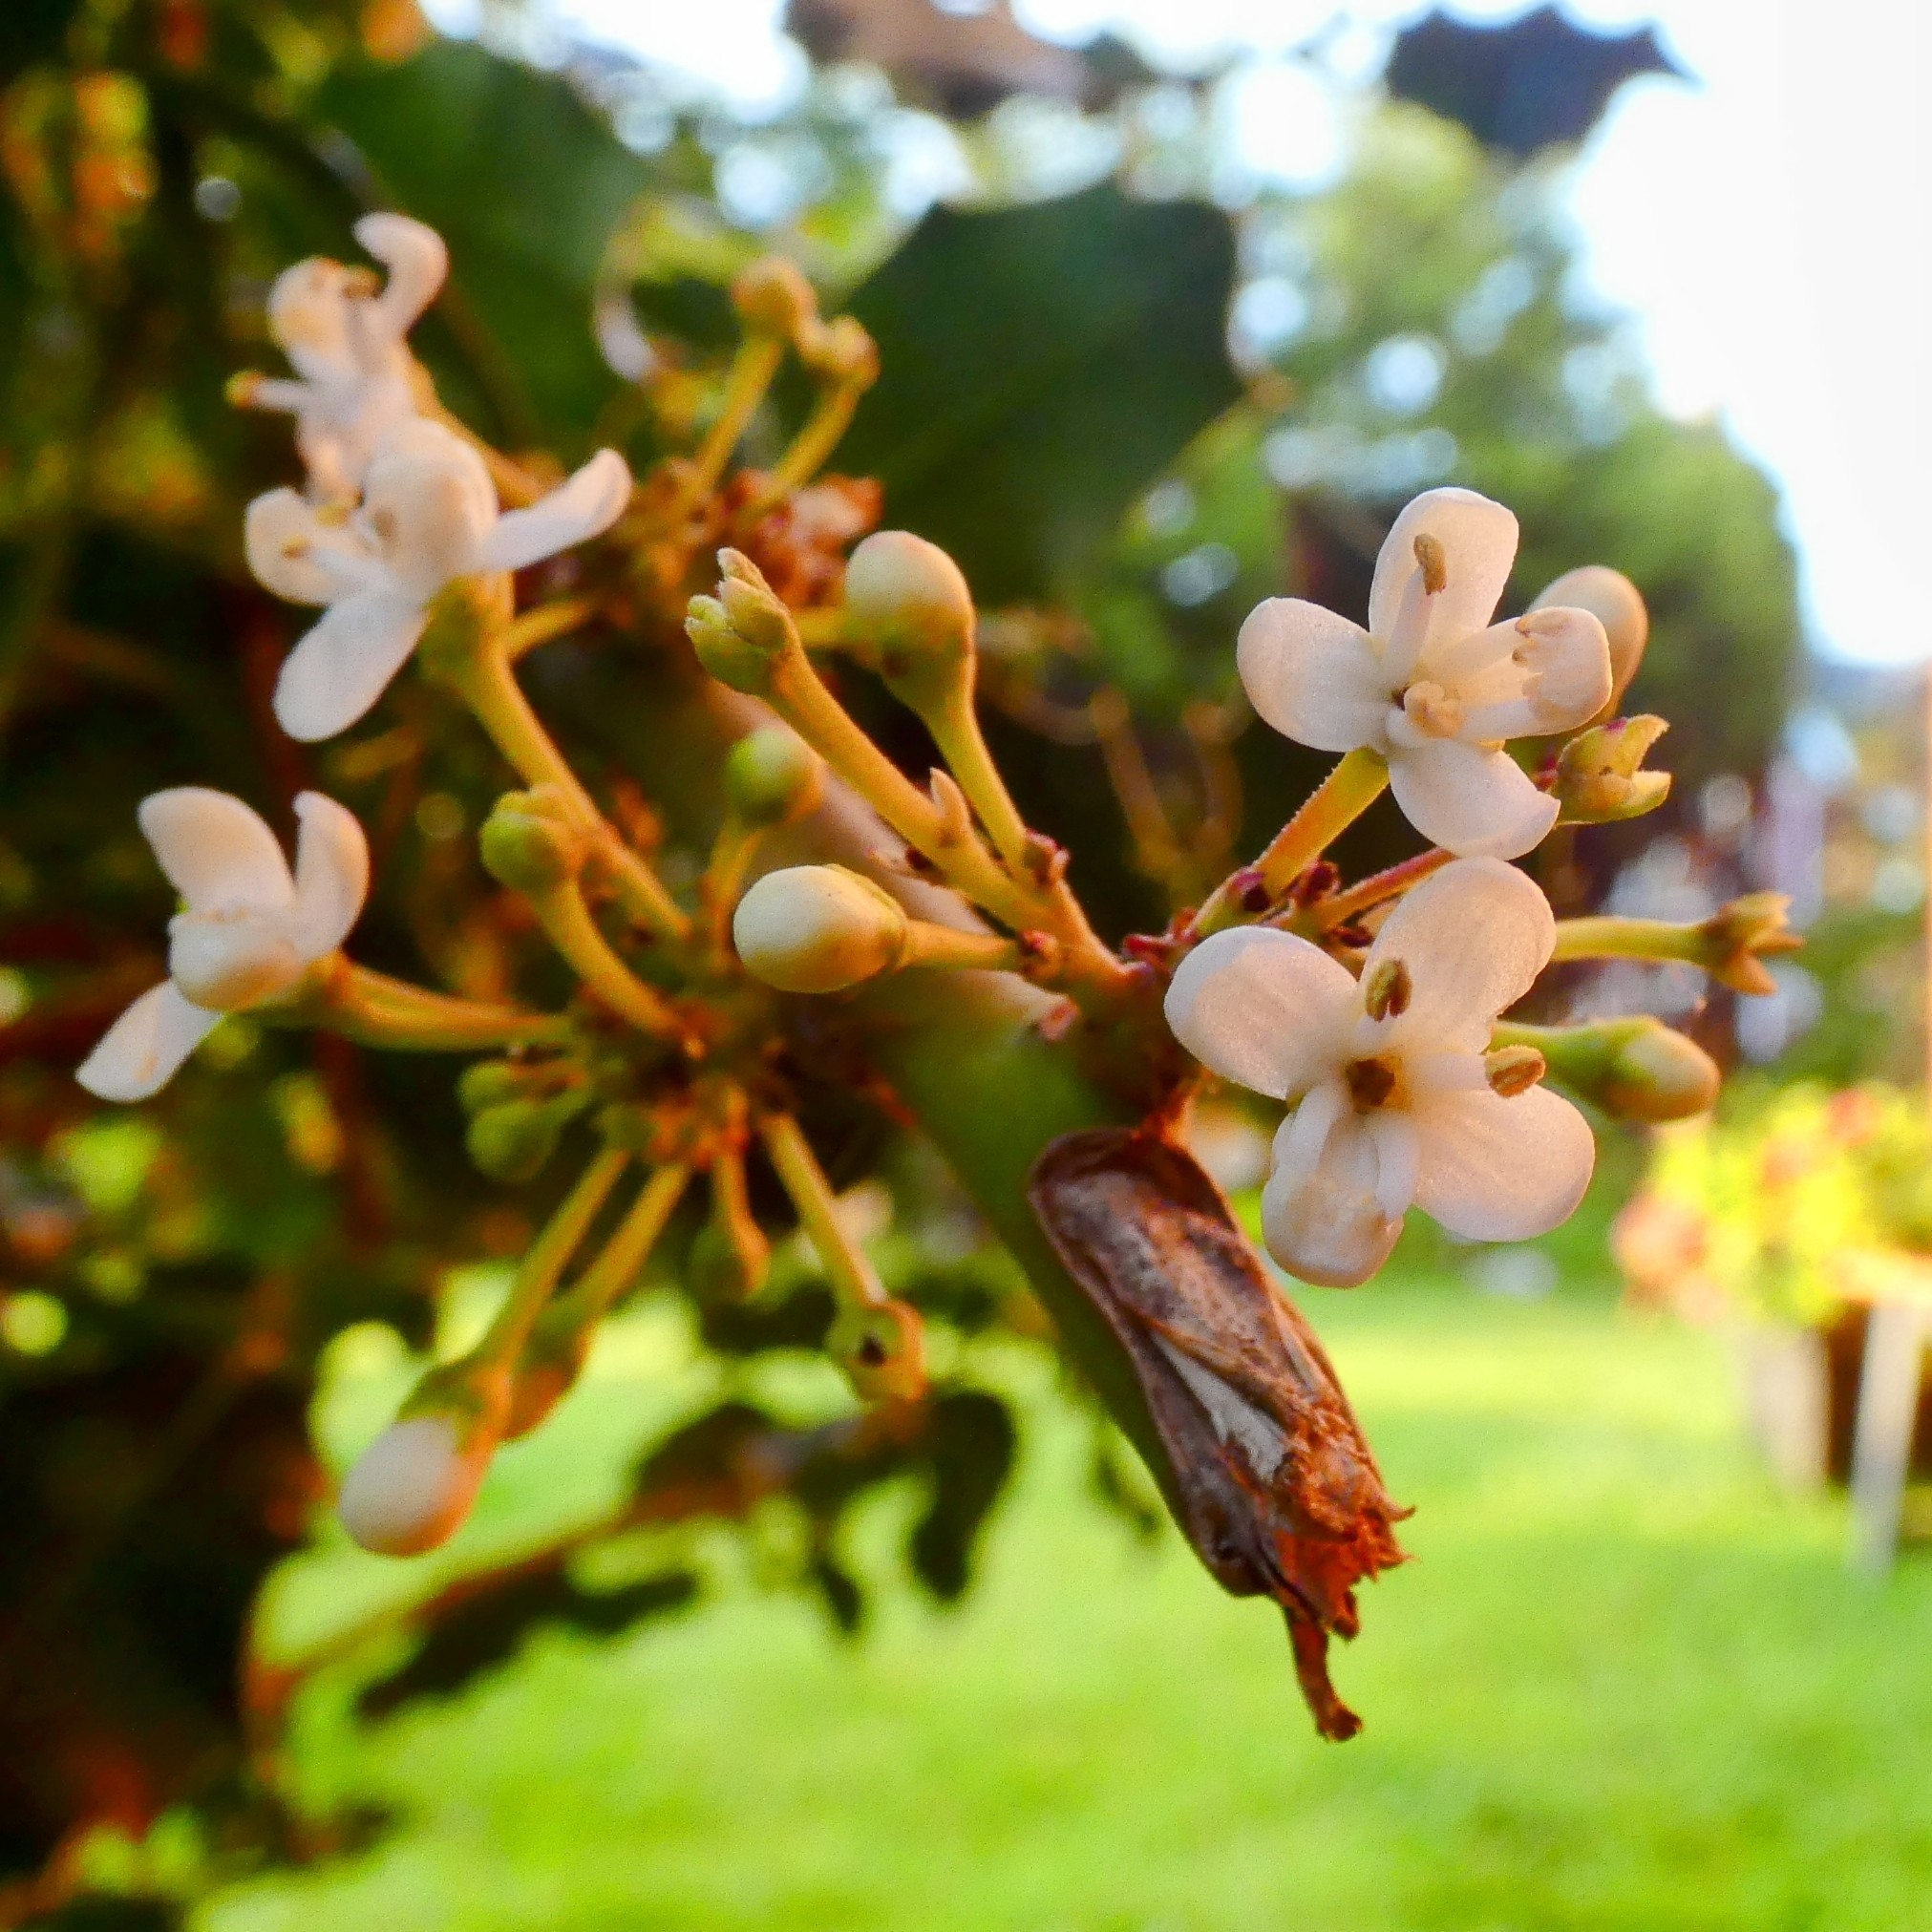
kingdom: Plantae
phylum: Tracheophyta
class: Magnoliopsida
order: Aquifoliales
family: Aquifoliaceae
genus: Ilex
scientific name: Ilex aquifolium
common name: English holly
